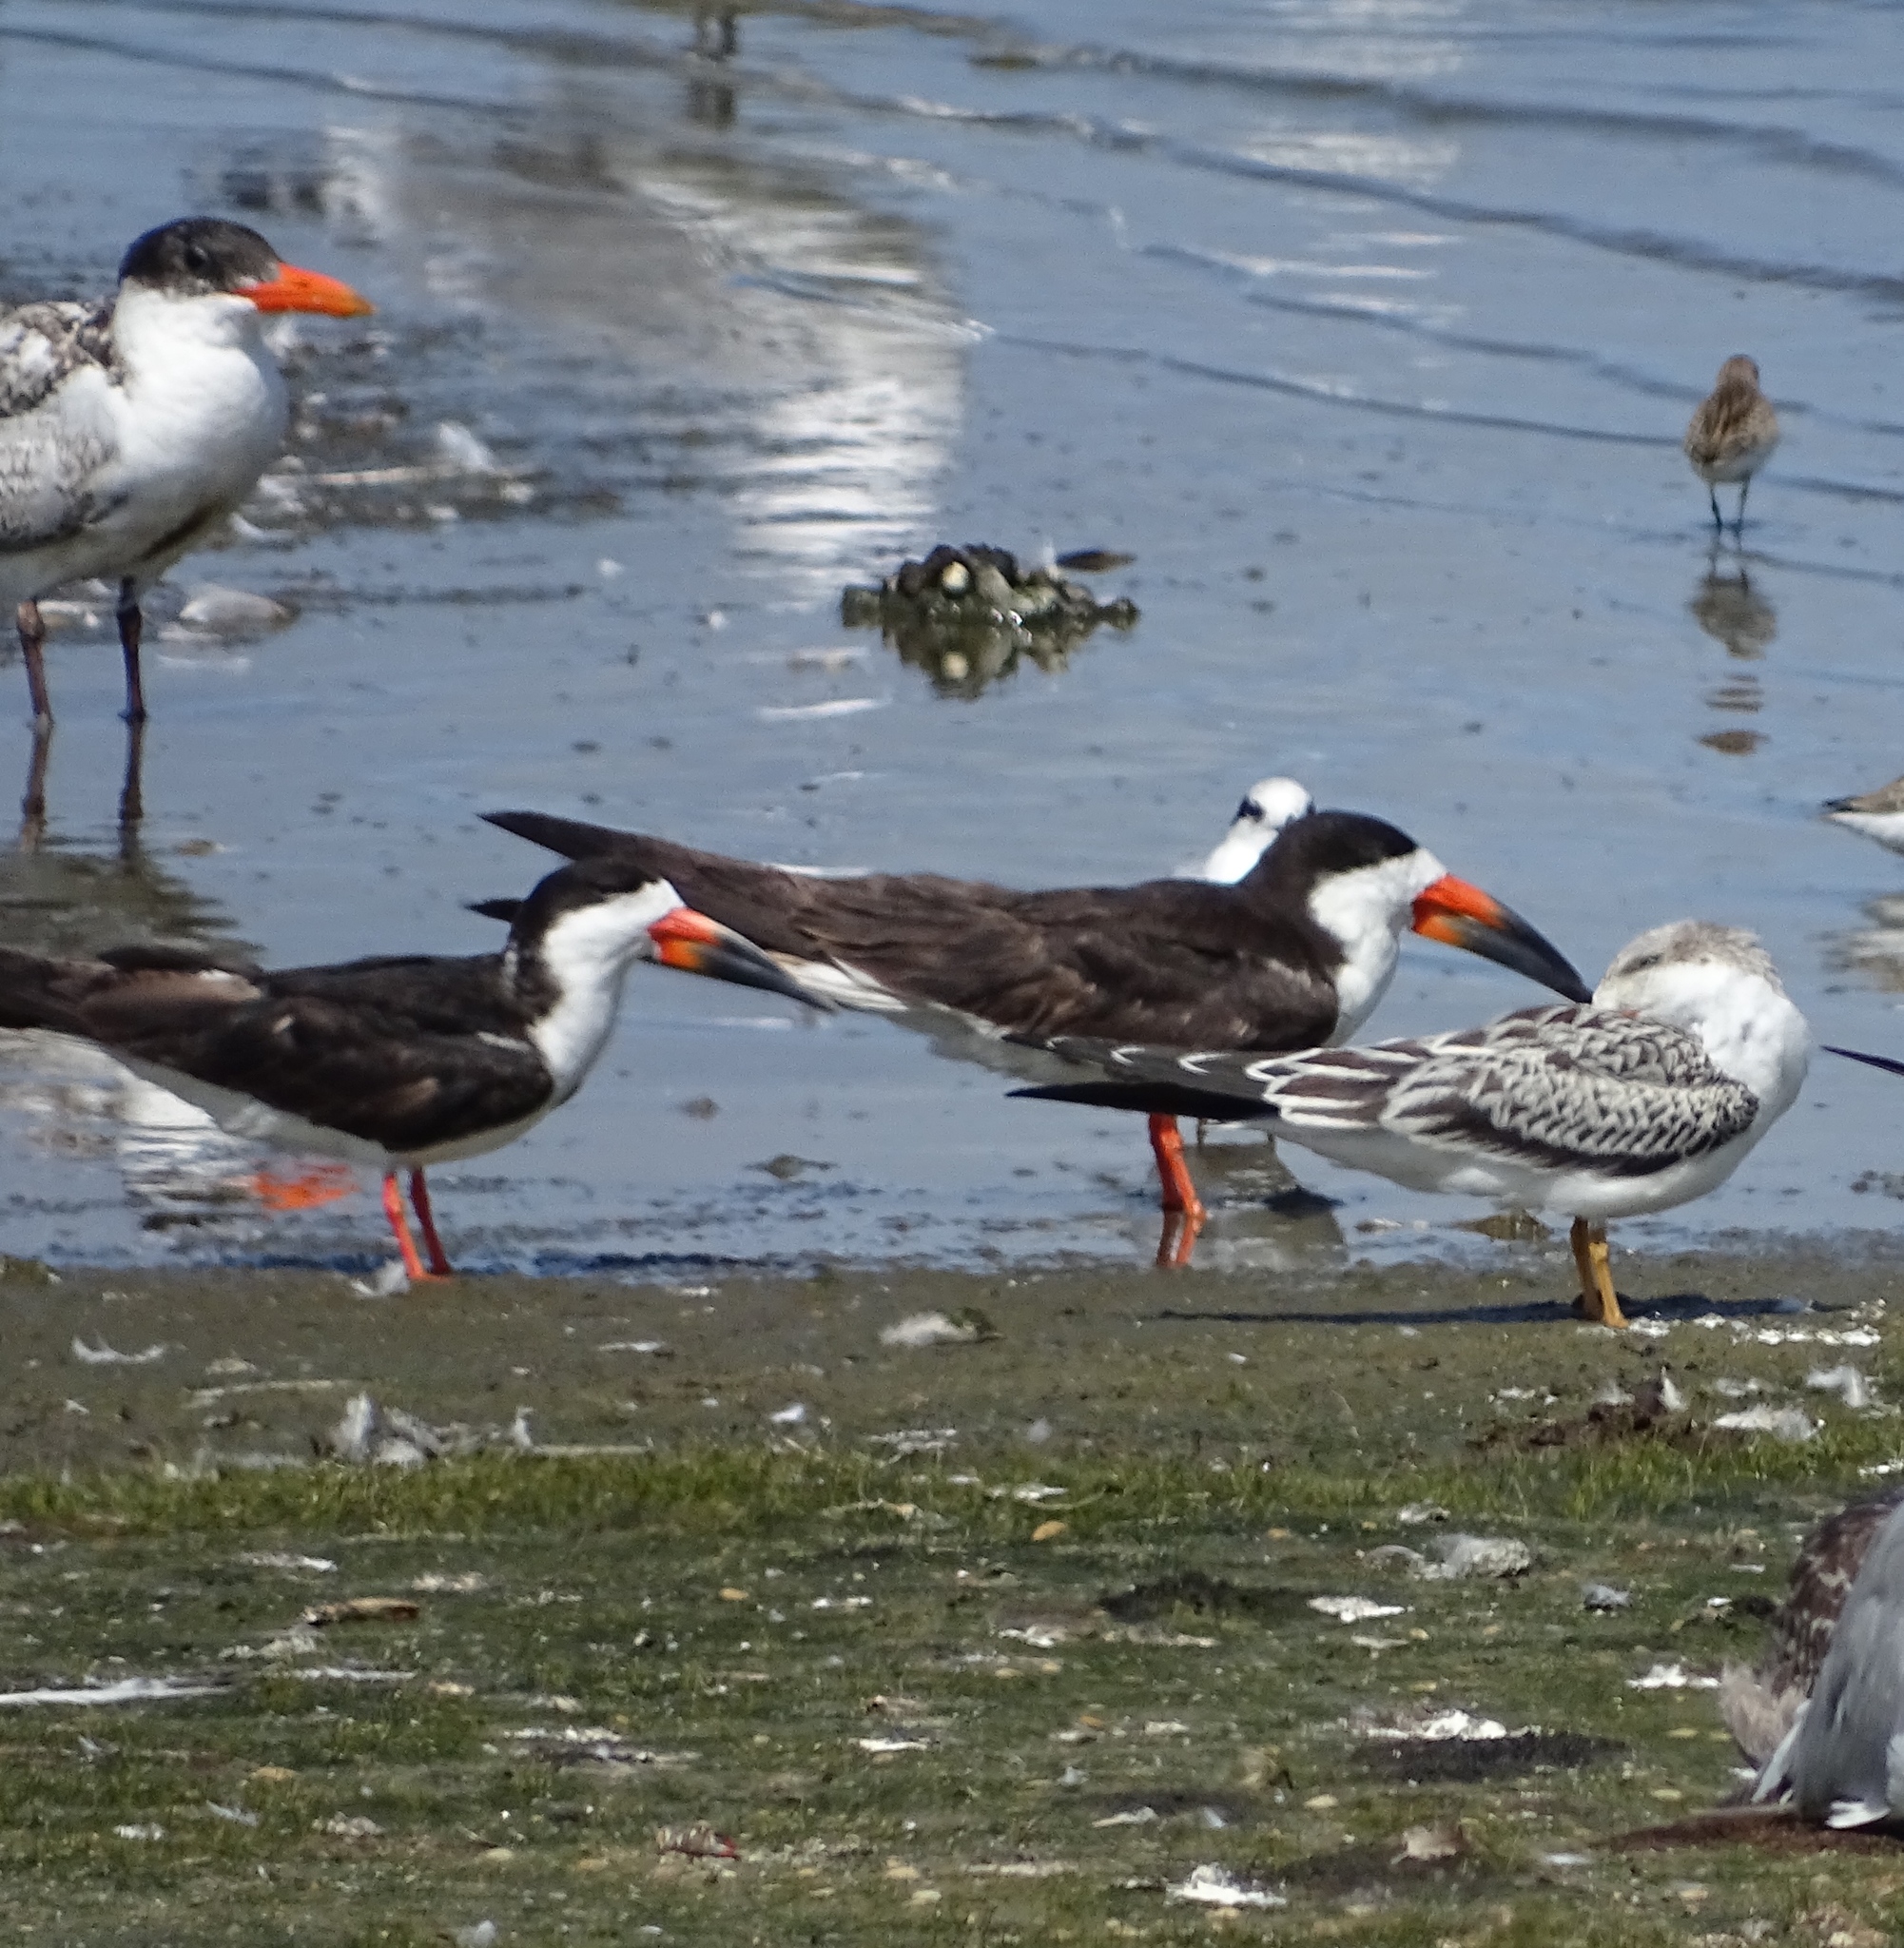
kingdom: Animalia
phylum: Chordata
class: Aves
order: Charadriiformes
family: Laridae
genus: Rynchops
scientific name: Rynchops niger
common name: Black skimmer
